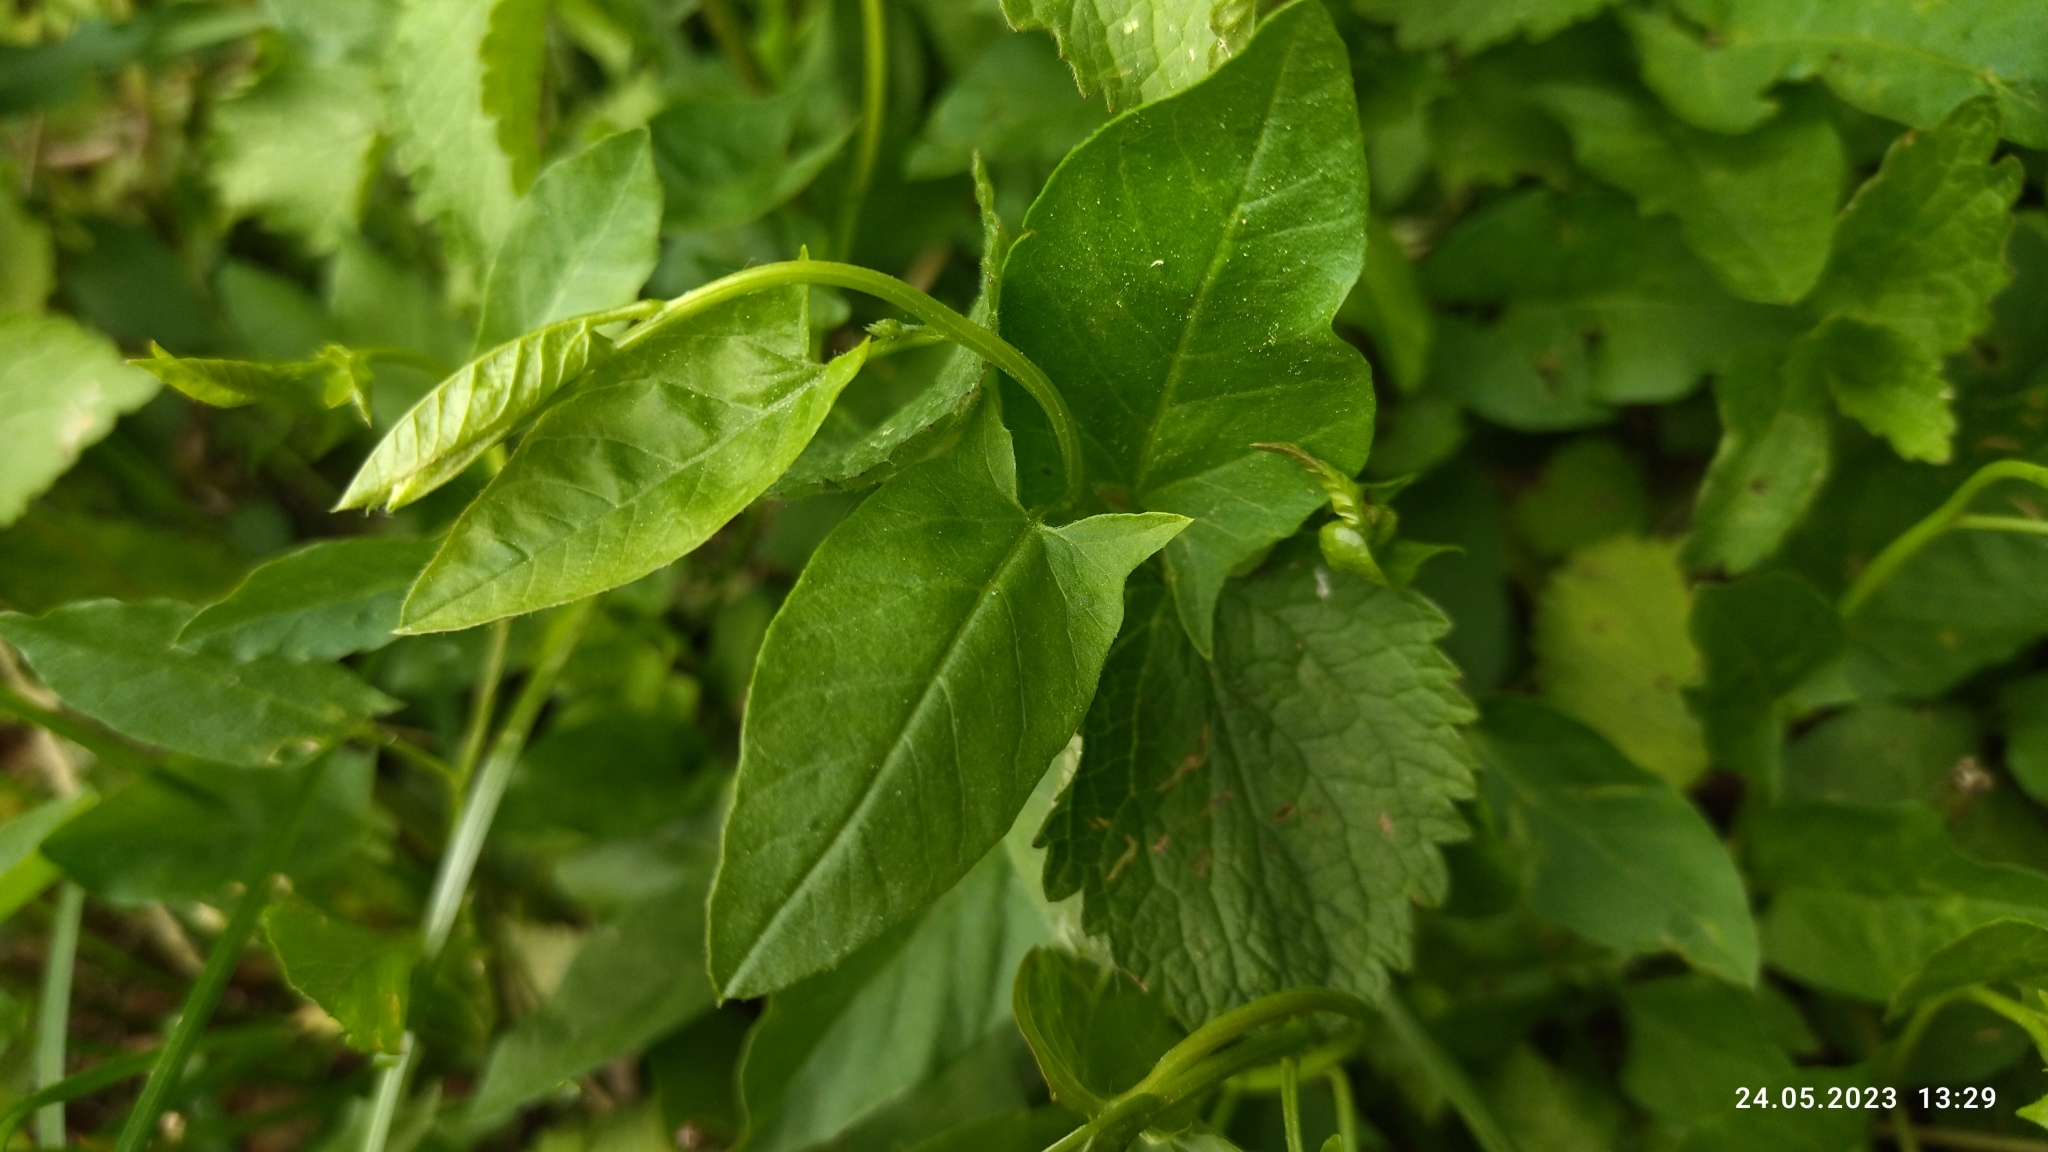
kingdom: Plantae
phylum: Tracheophyta
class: Magnoliopsida
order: Solanales
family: Convolvulaceae
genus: Convolvulus
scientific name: Convolvulus arvensis
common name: Field bindweed
